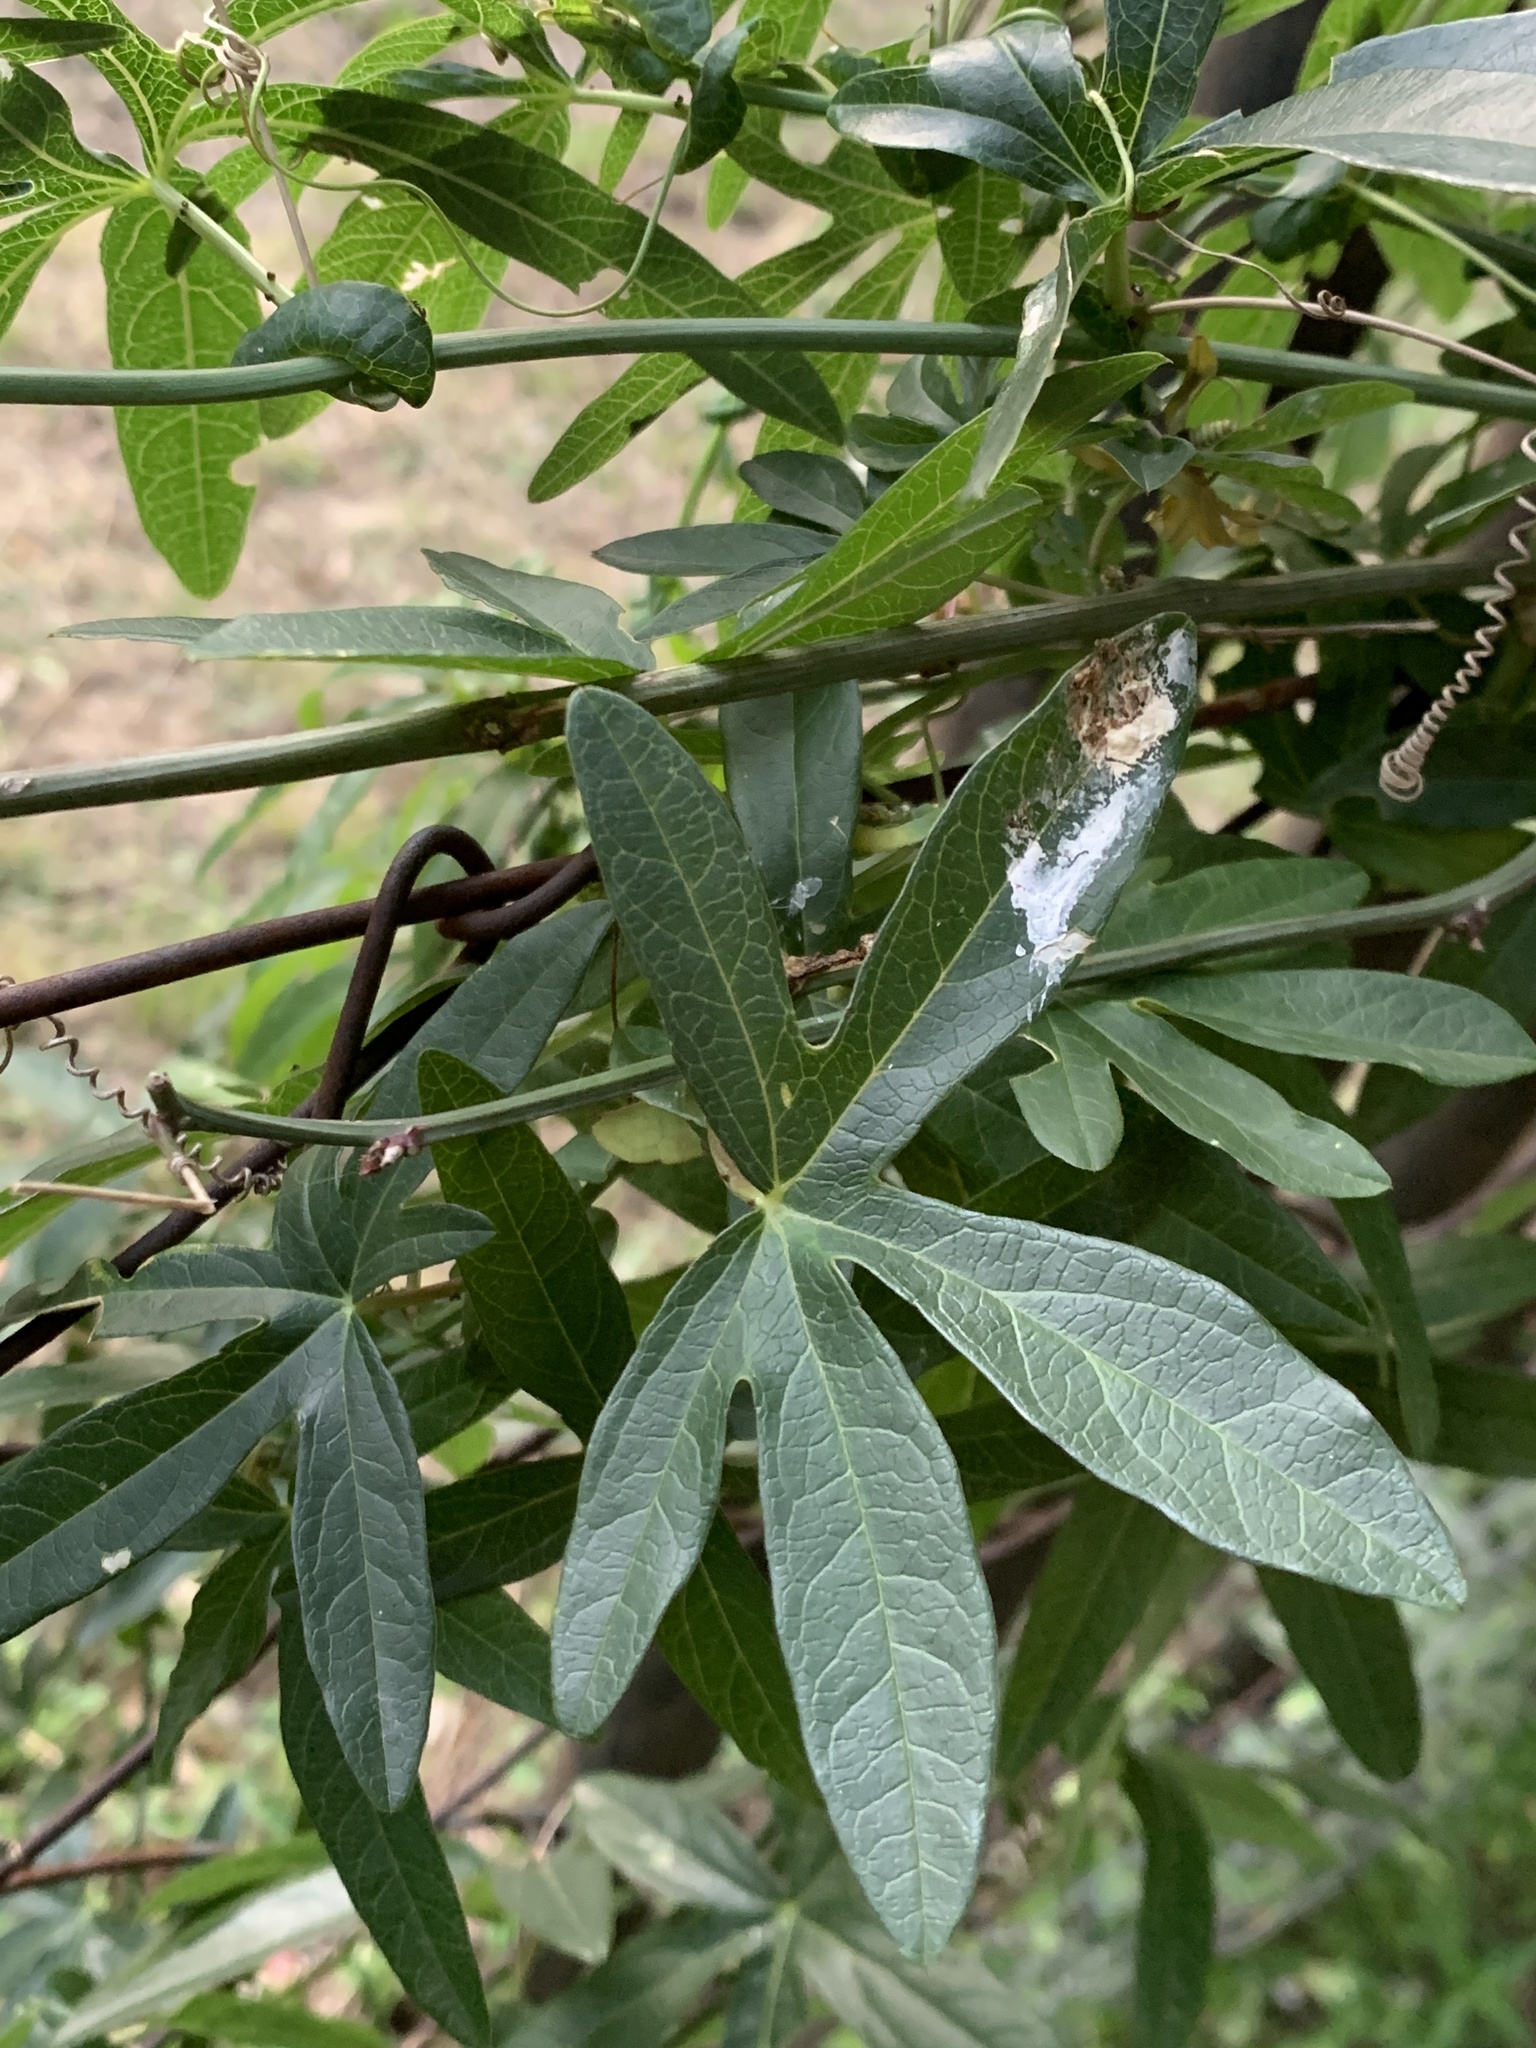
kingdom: Plantae
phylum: Tracheophyta
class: Magnoliopsida
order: Malpighiales
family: Passifloraceae
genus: Passiflora
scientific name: Passiflora caerulea
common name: Blue passionflower
